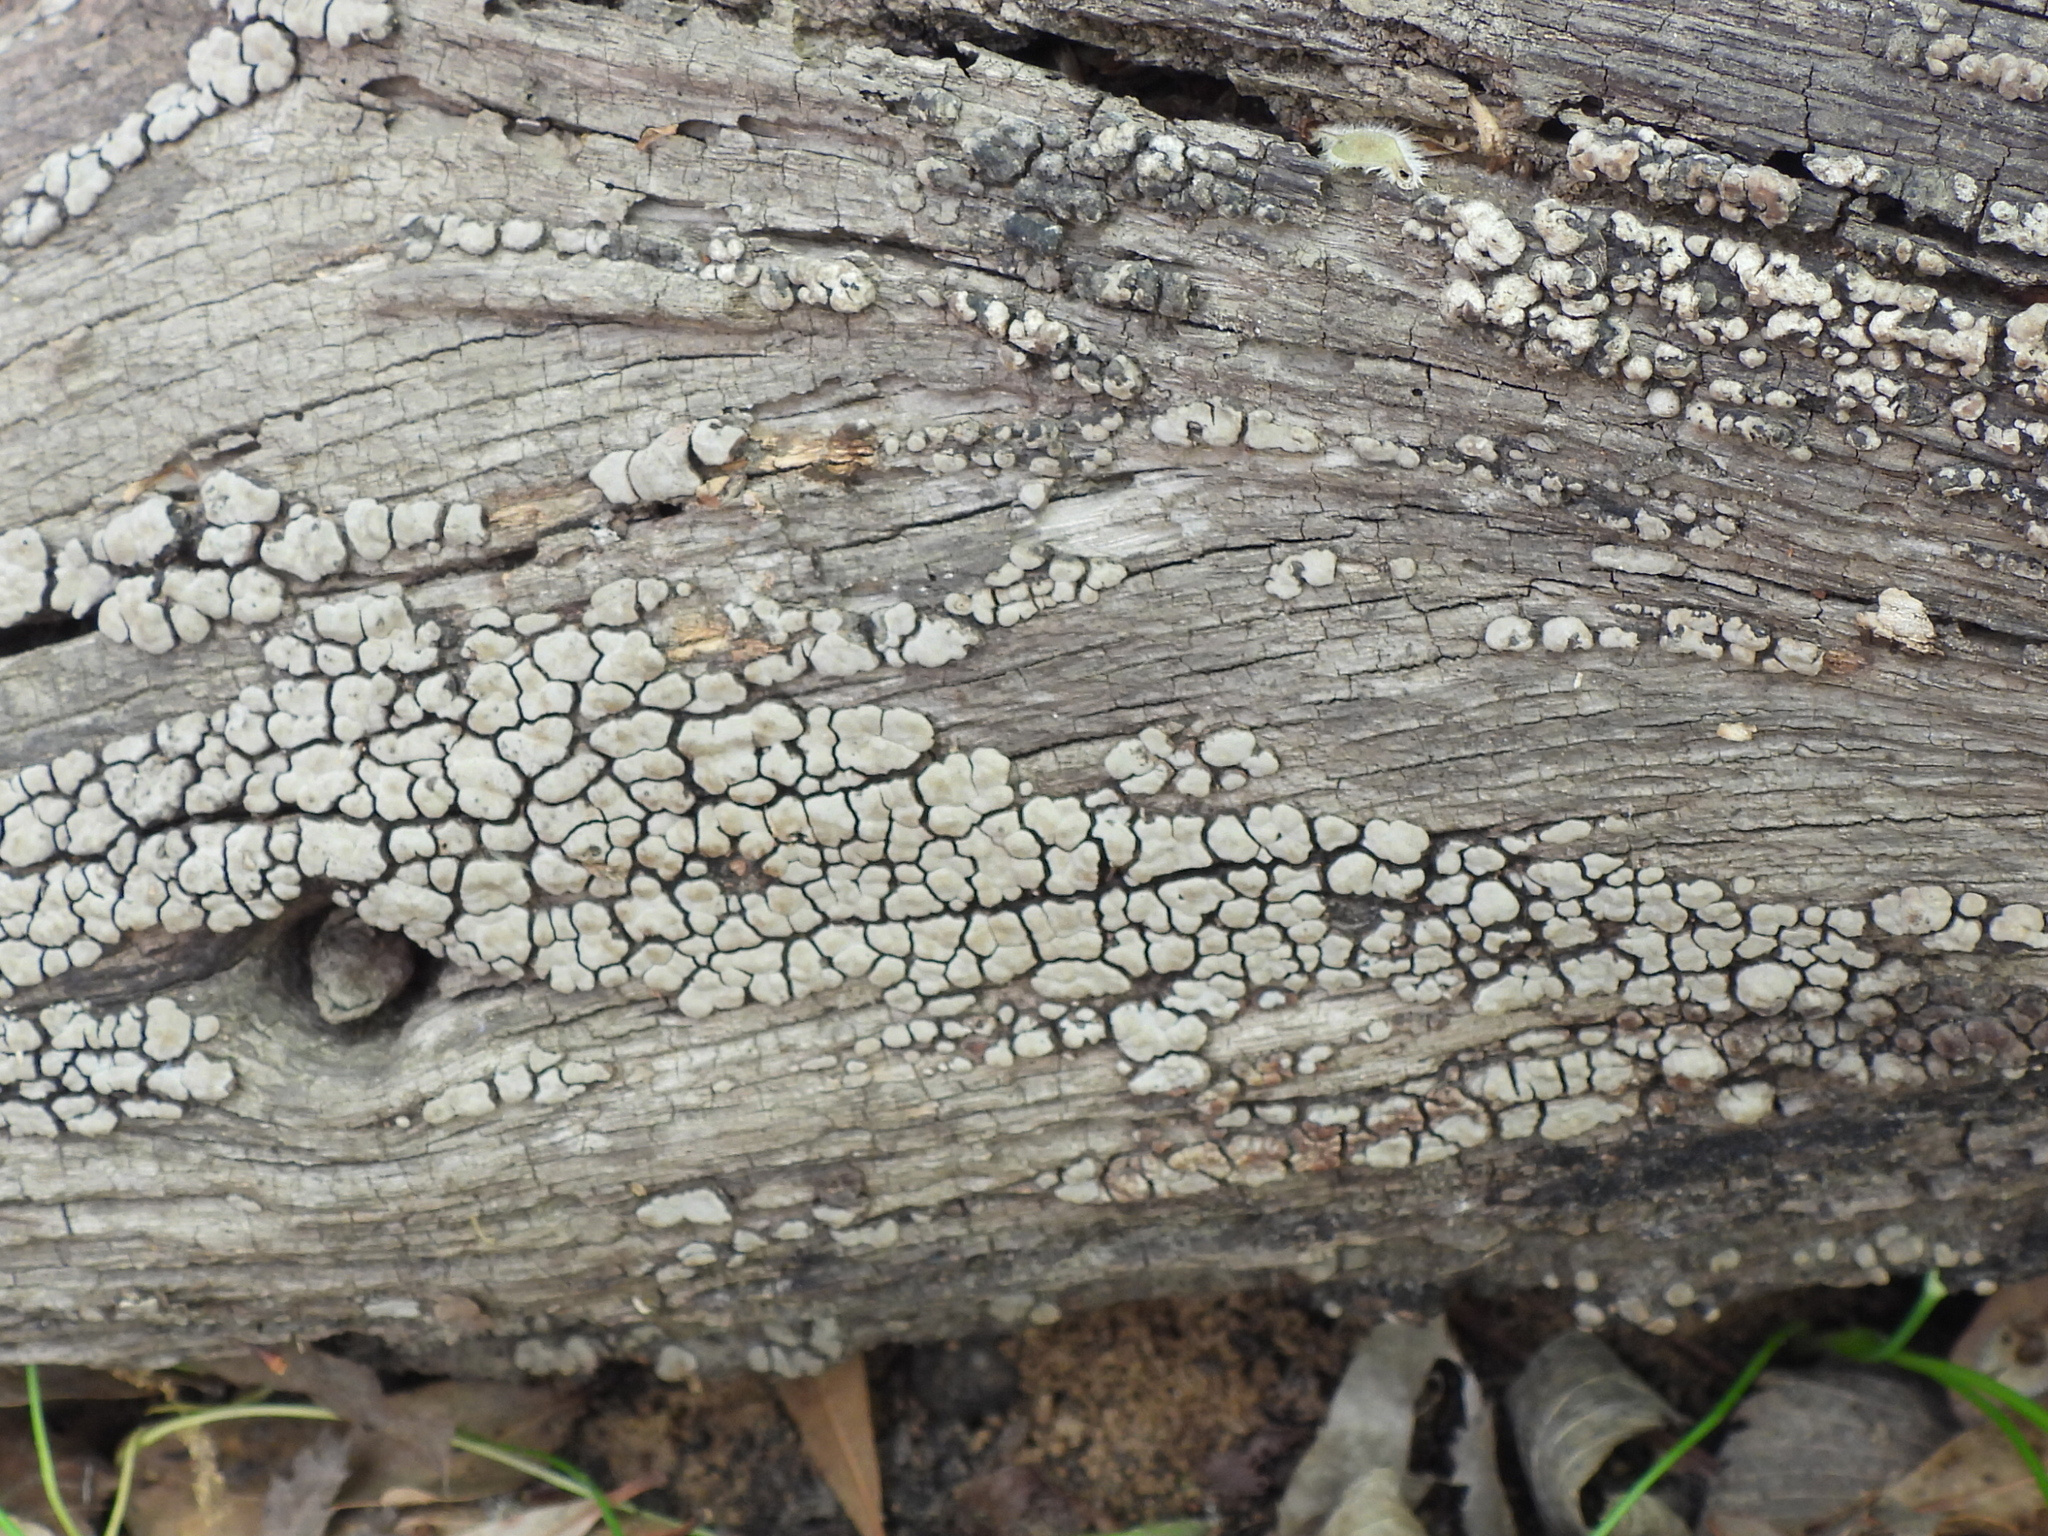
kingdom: Fungi
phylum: Basidiomycota
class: Agaricomycetes
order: Russulales
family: Stereaceae
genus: Xylobolus
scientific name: Xylobolus frustulatus
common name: Ceramic parchment
